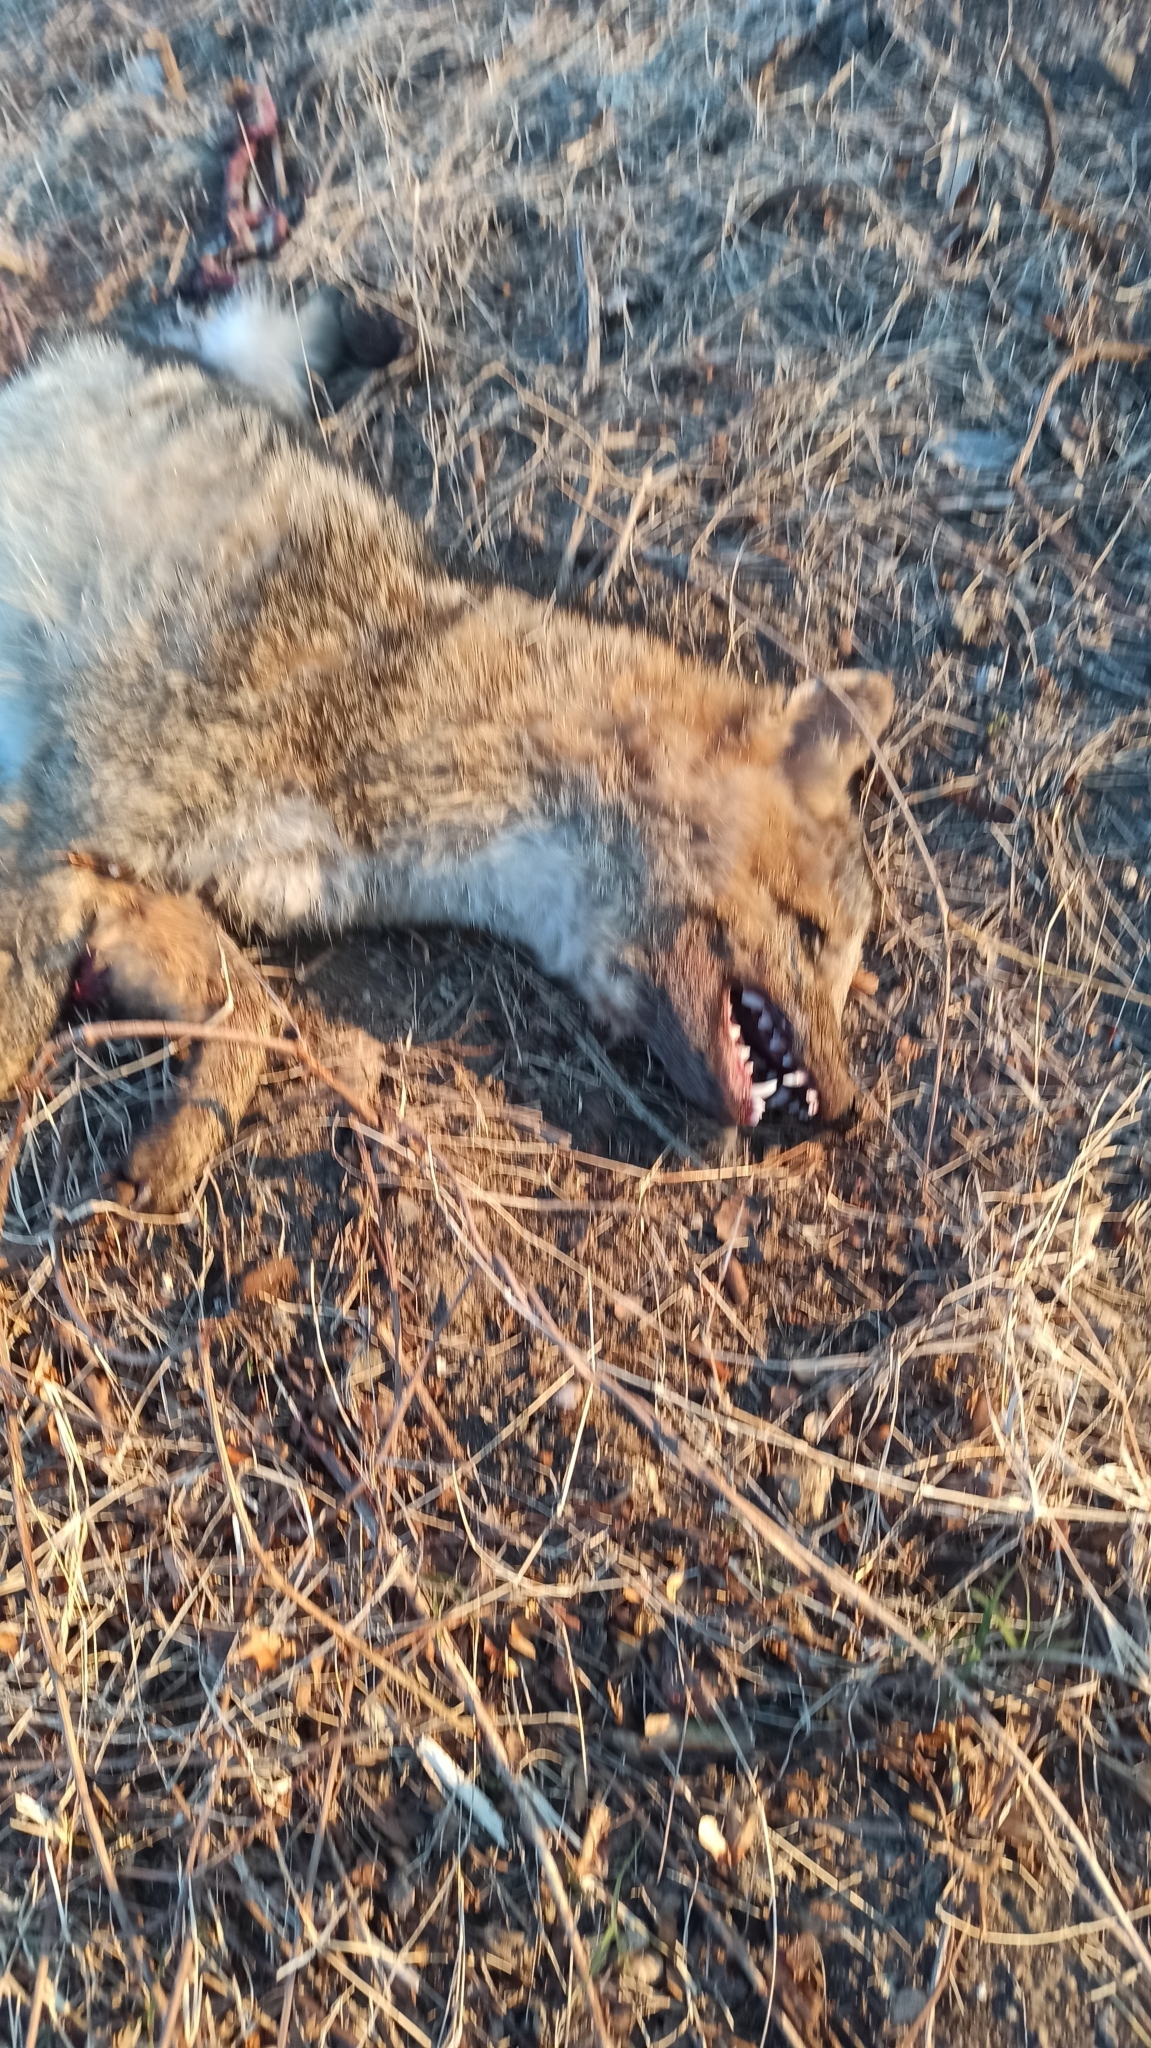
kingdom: Animalia
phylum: Chordata
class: Mammalia
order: Carnivora
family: Canidae
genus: Cerdocyon
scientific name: Cerdocyon thous
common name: Crab-eating fox
